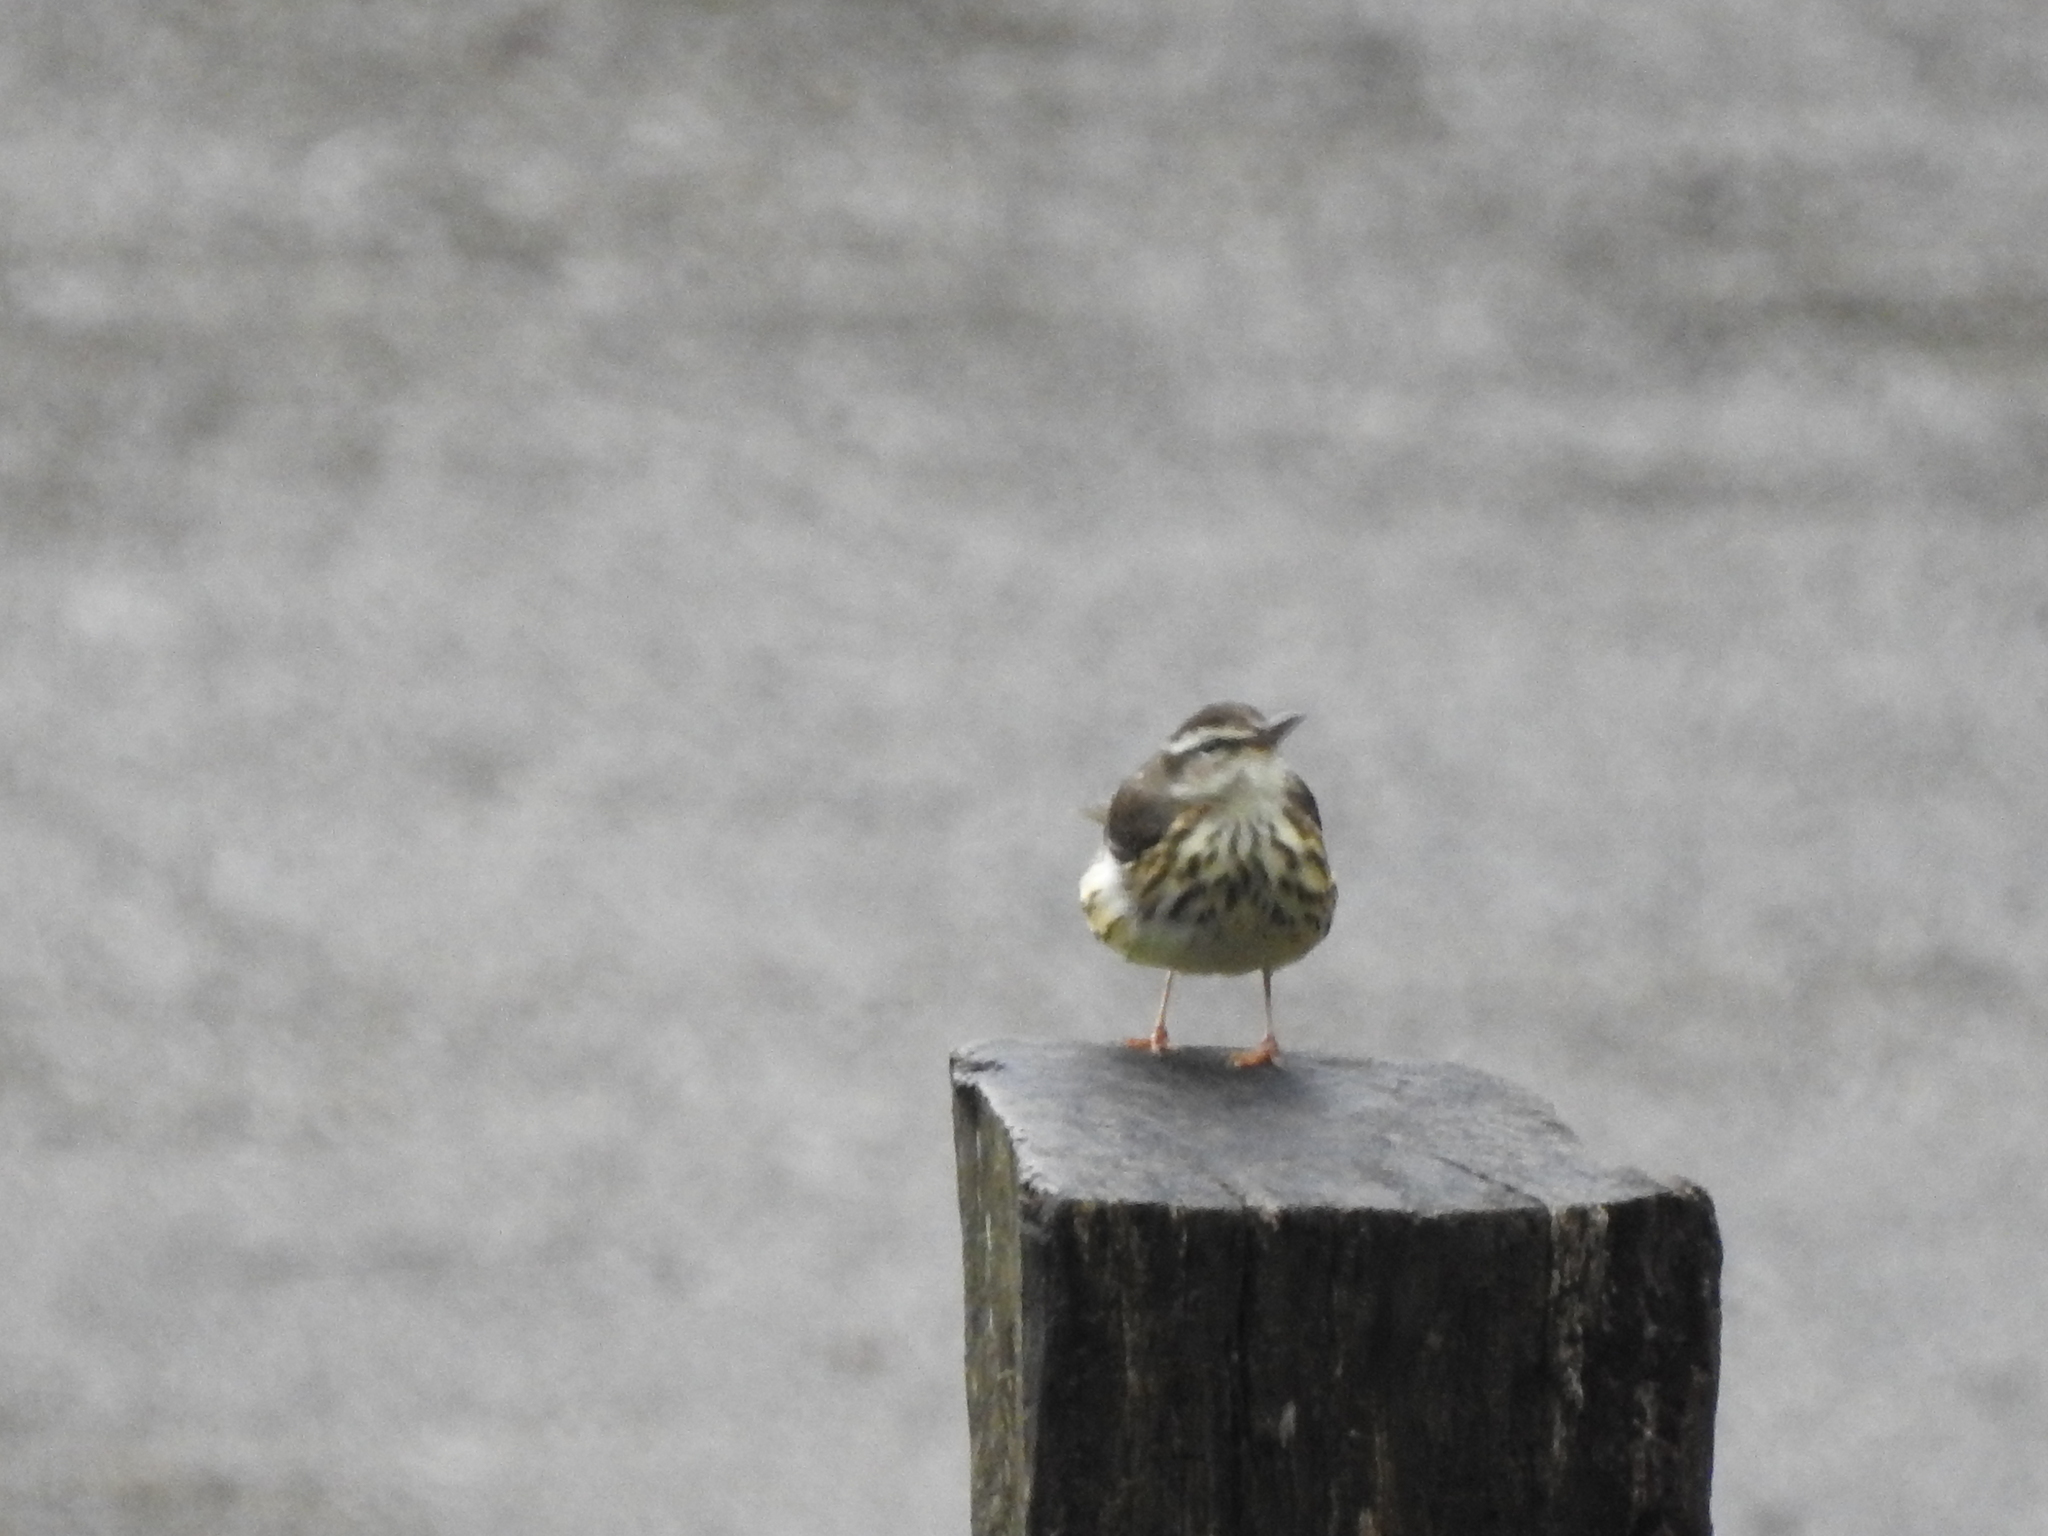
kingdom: Animalia
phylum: Chordata
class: Aves
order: Passeriformes
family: Parulidae
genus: Parkesia
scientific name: Parkesia motacilla
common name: Louisiana waterthrush
